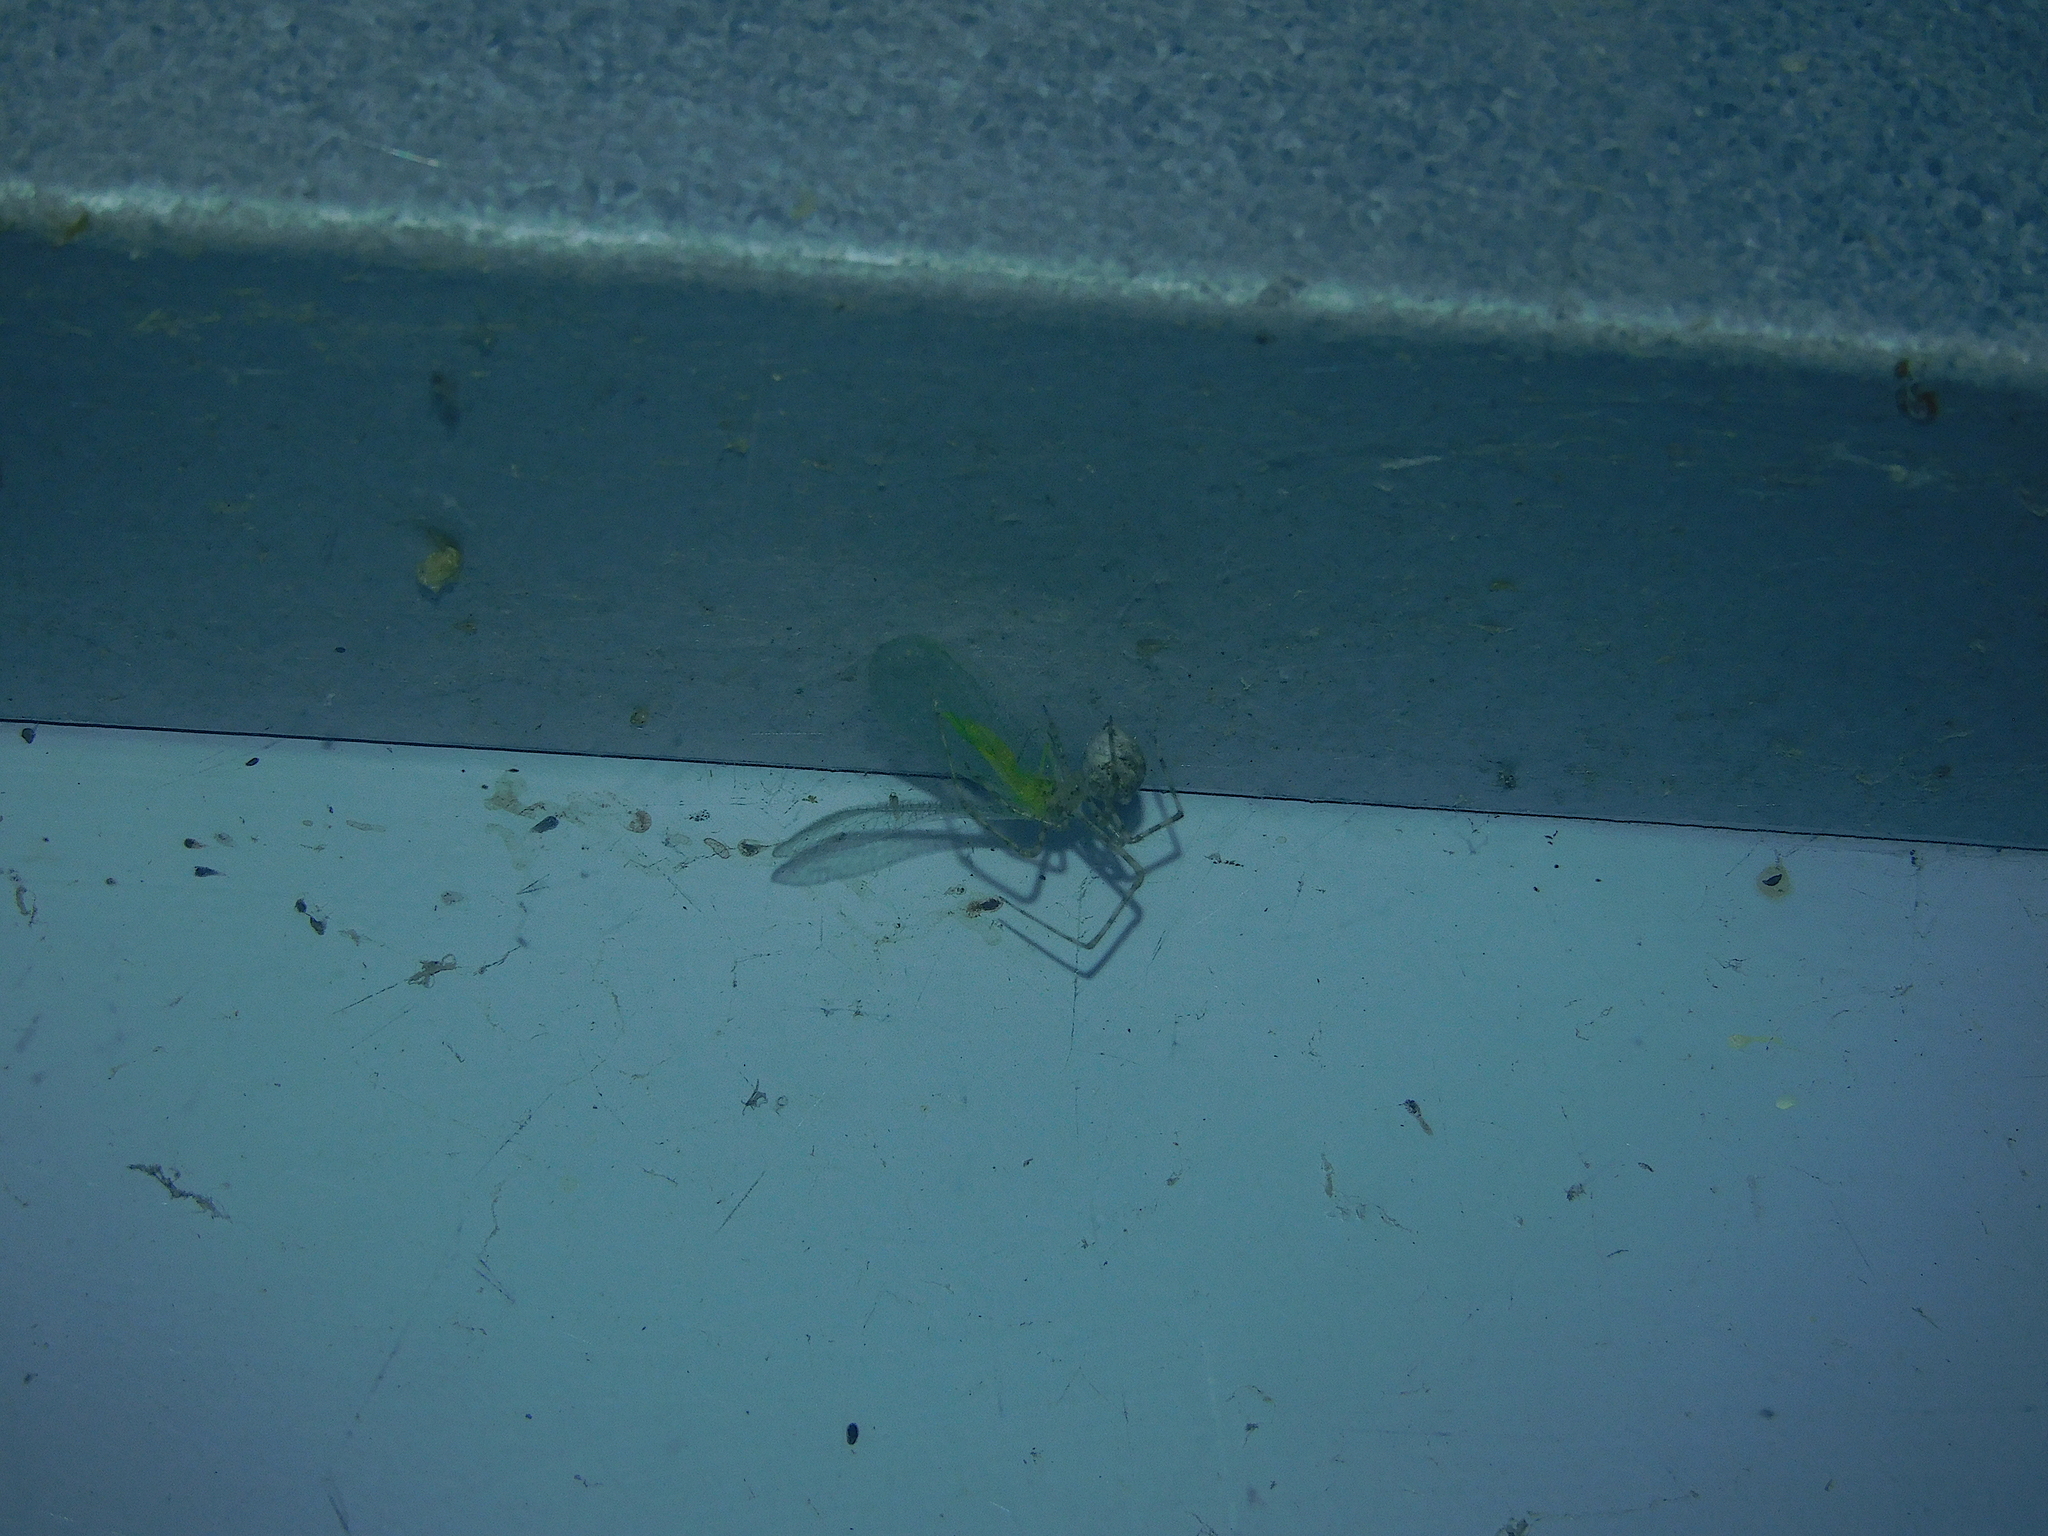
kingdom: Animalia
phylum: Arthropoda
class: Arachnida
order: Araneae
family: Theridiidae
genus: Cryptachaea
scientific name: Cryptachaea gigantipes
